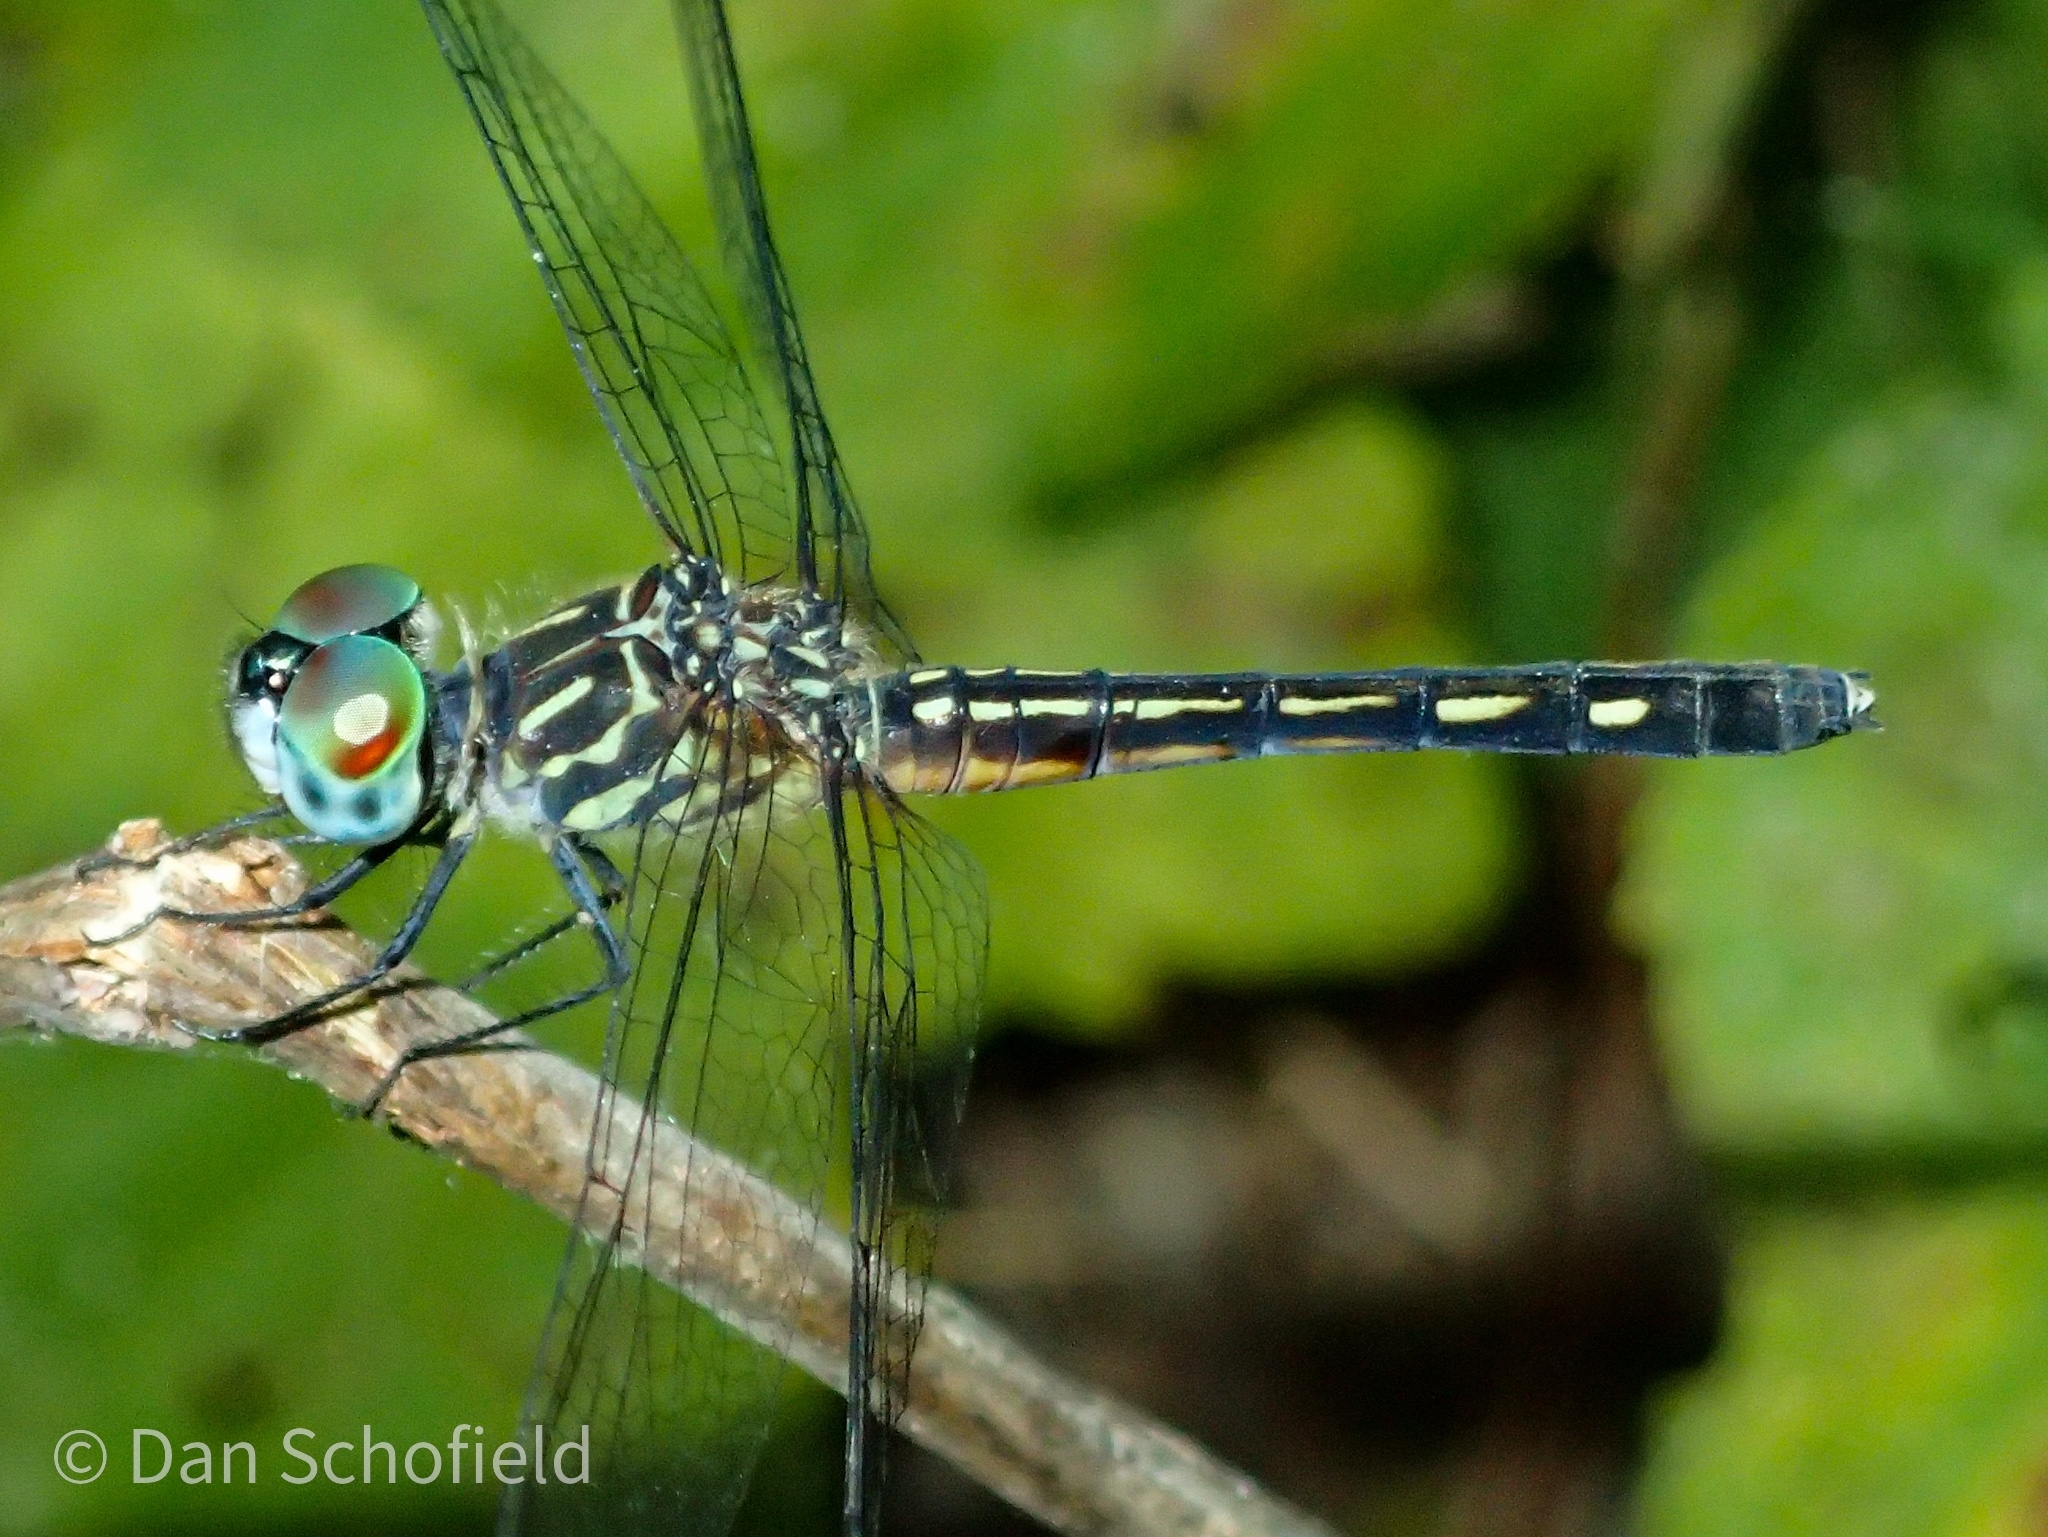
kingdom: Animalia
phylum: Arthropoda
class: Insecta
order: Odonata
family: Libellulidae
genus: Pachydiplax
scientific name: Pachydiplax longipennis
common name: Blue dasher
